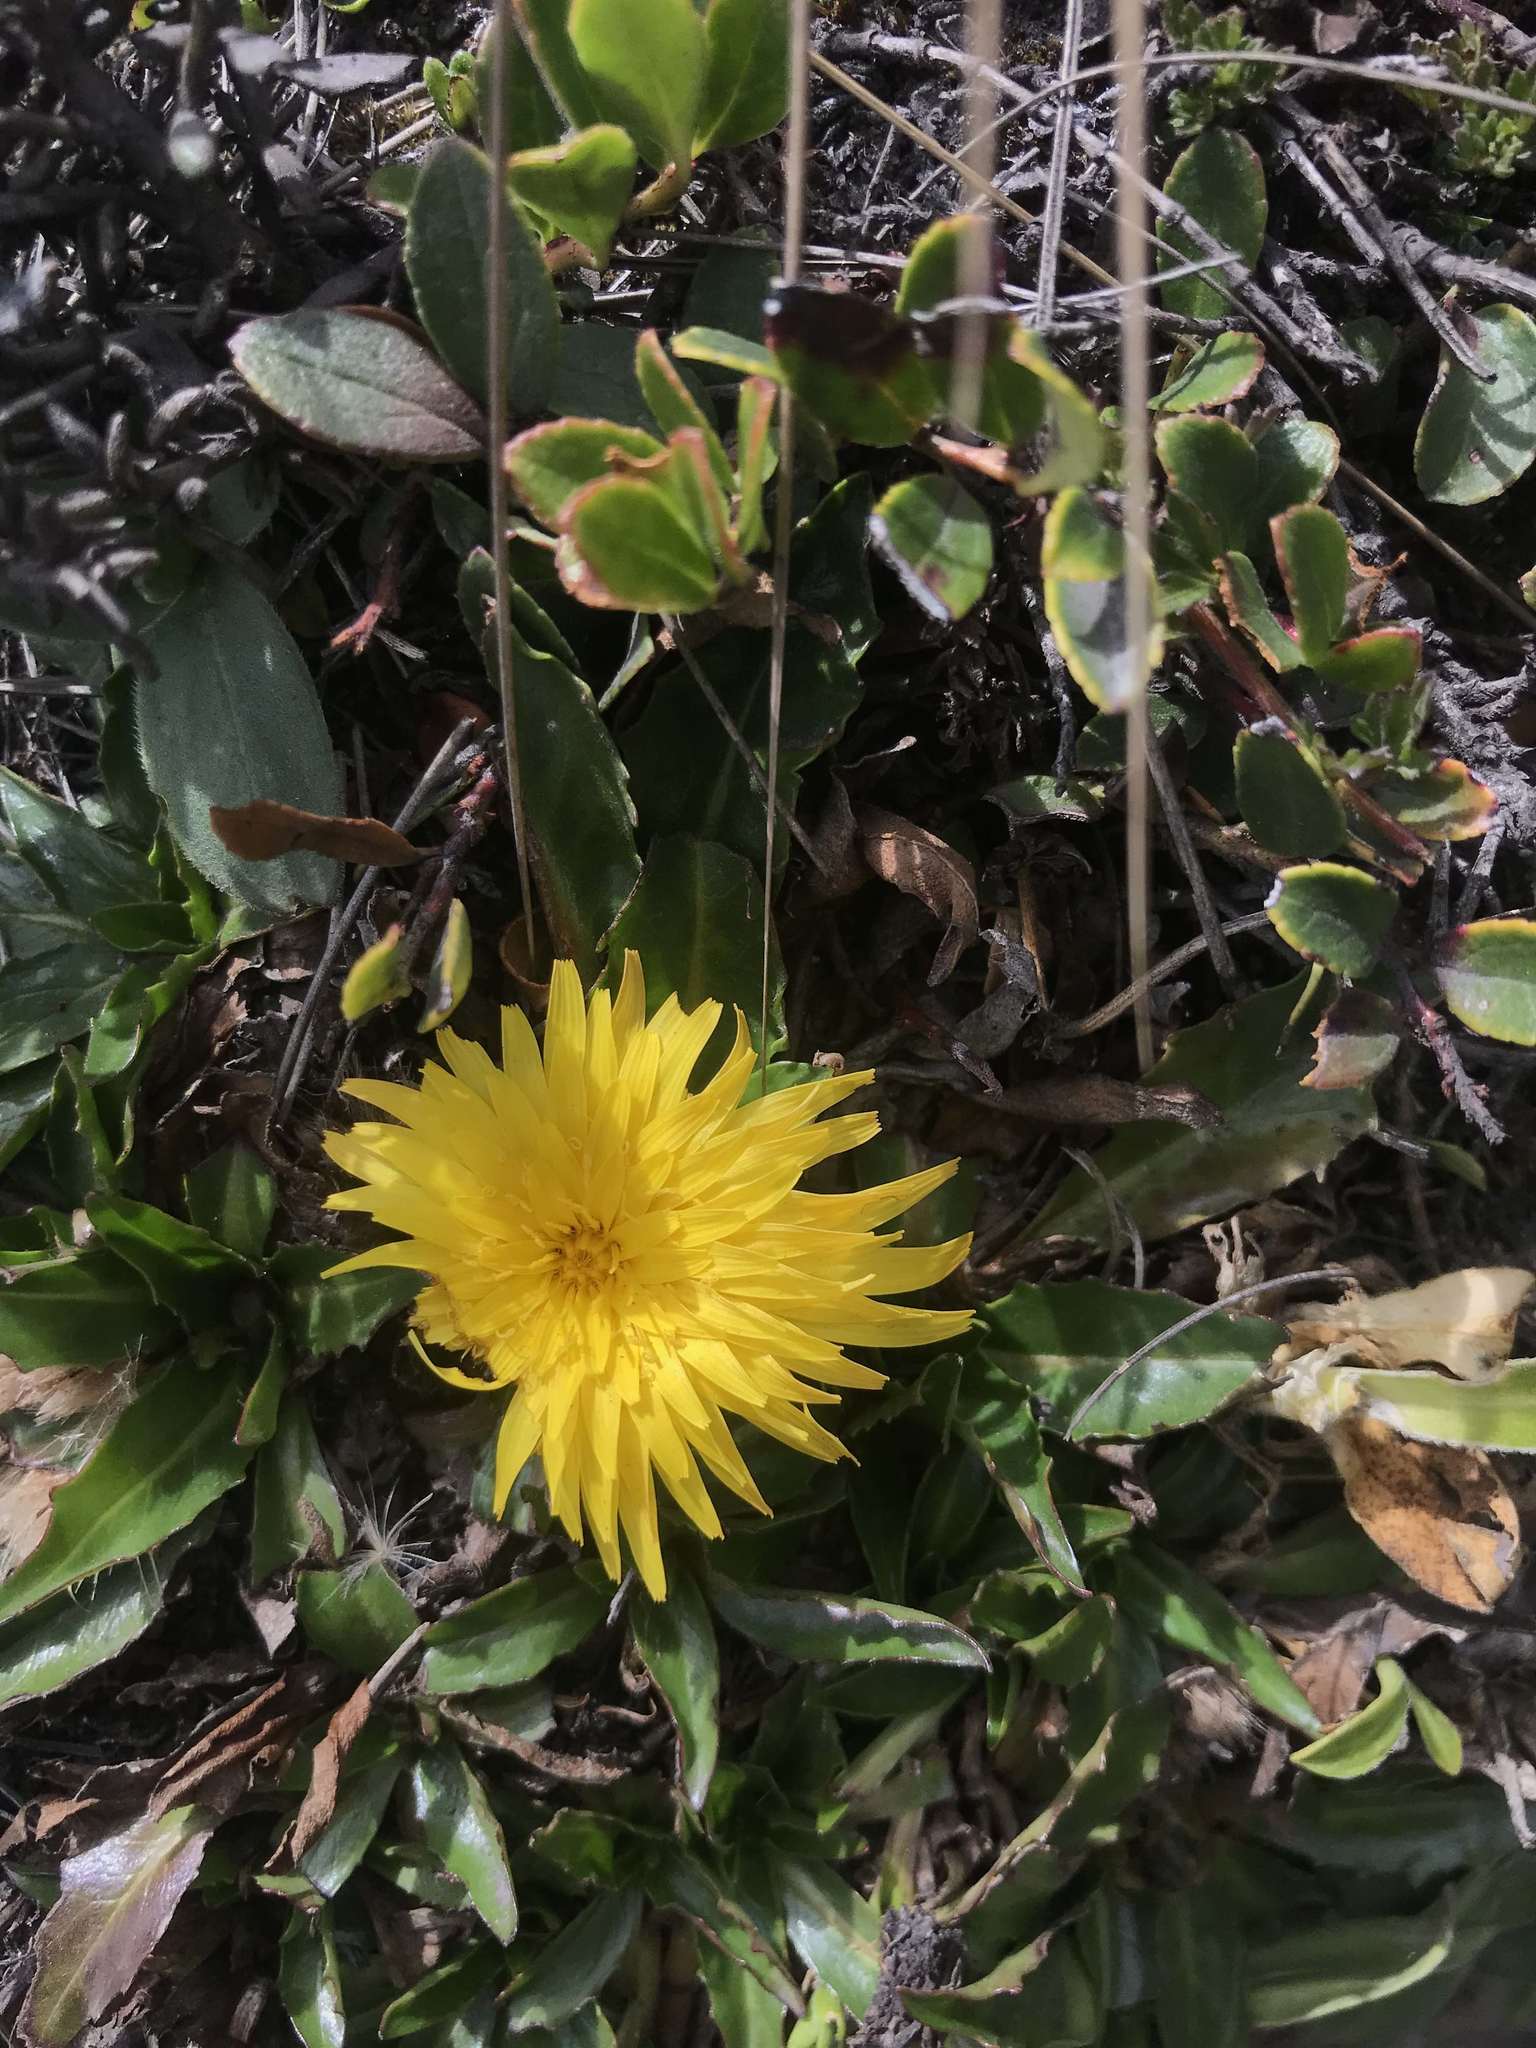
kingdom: Plantae
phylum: Tracheophyta
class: Magnoliopsida
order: Asterales
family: Asteraceae
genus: Hypochaeris
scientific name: Hypochaeris sessiliflora
